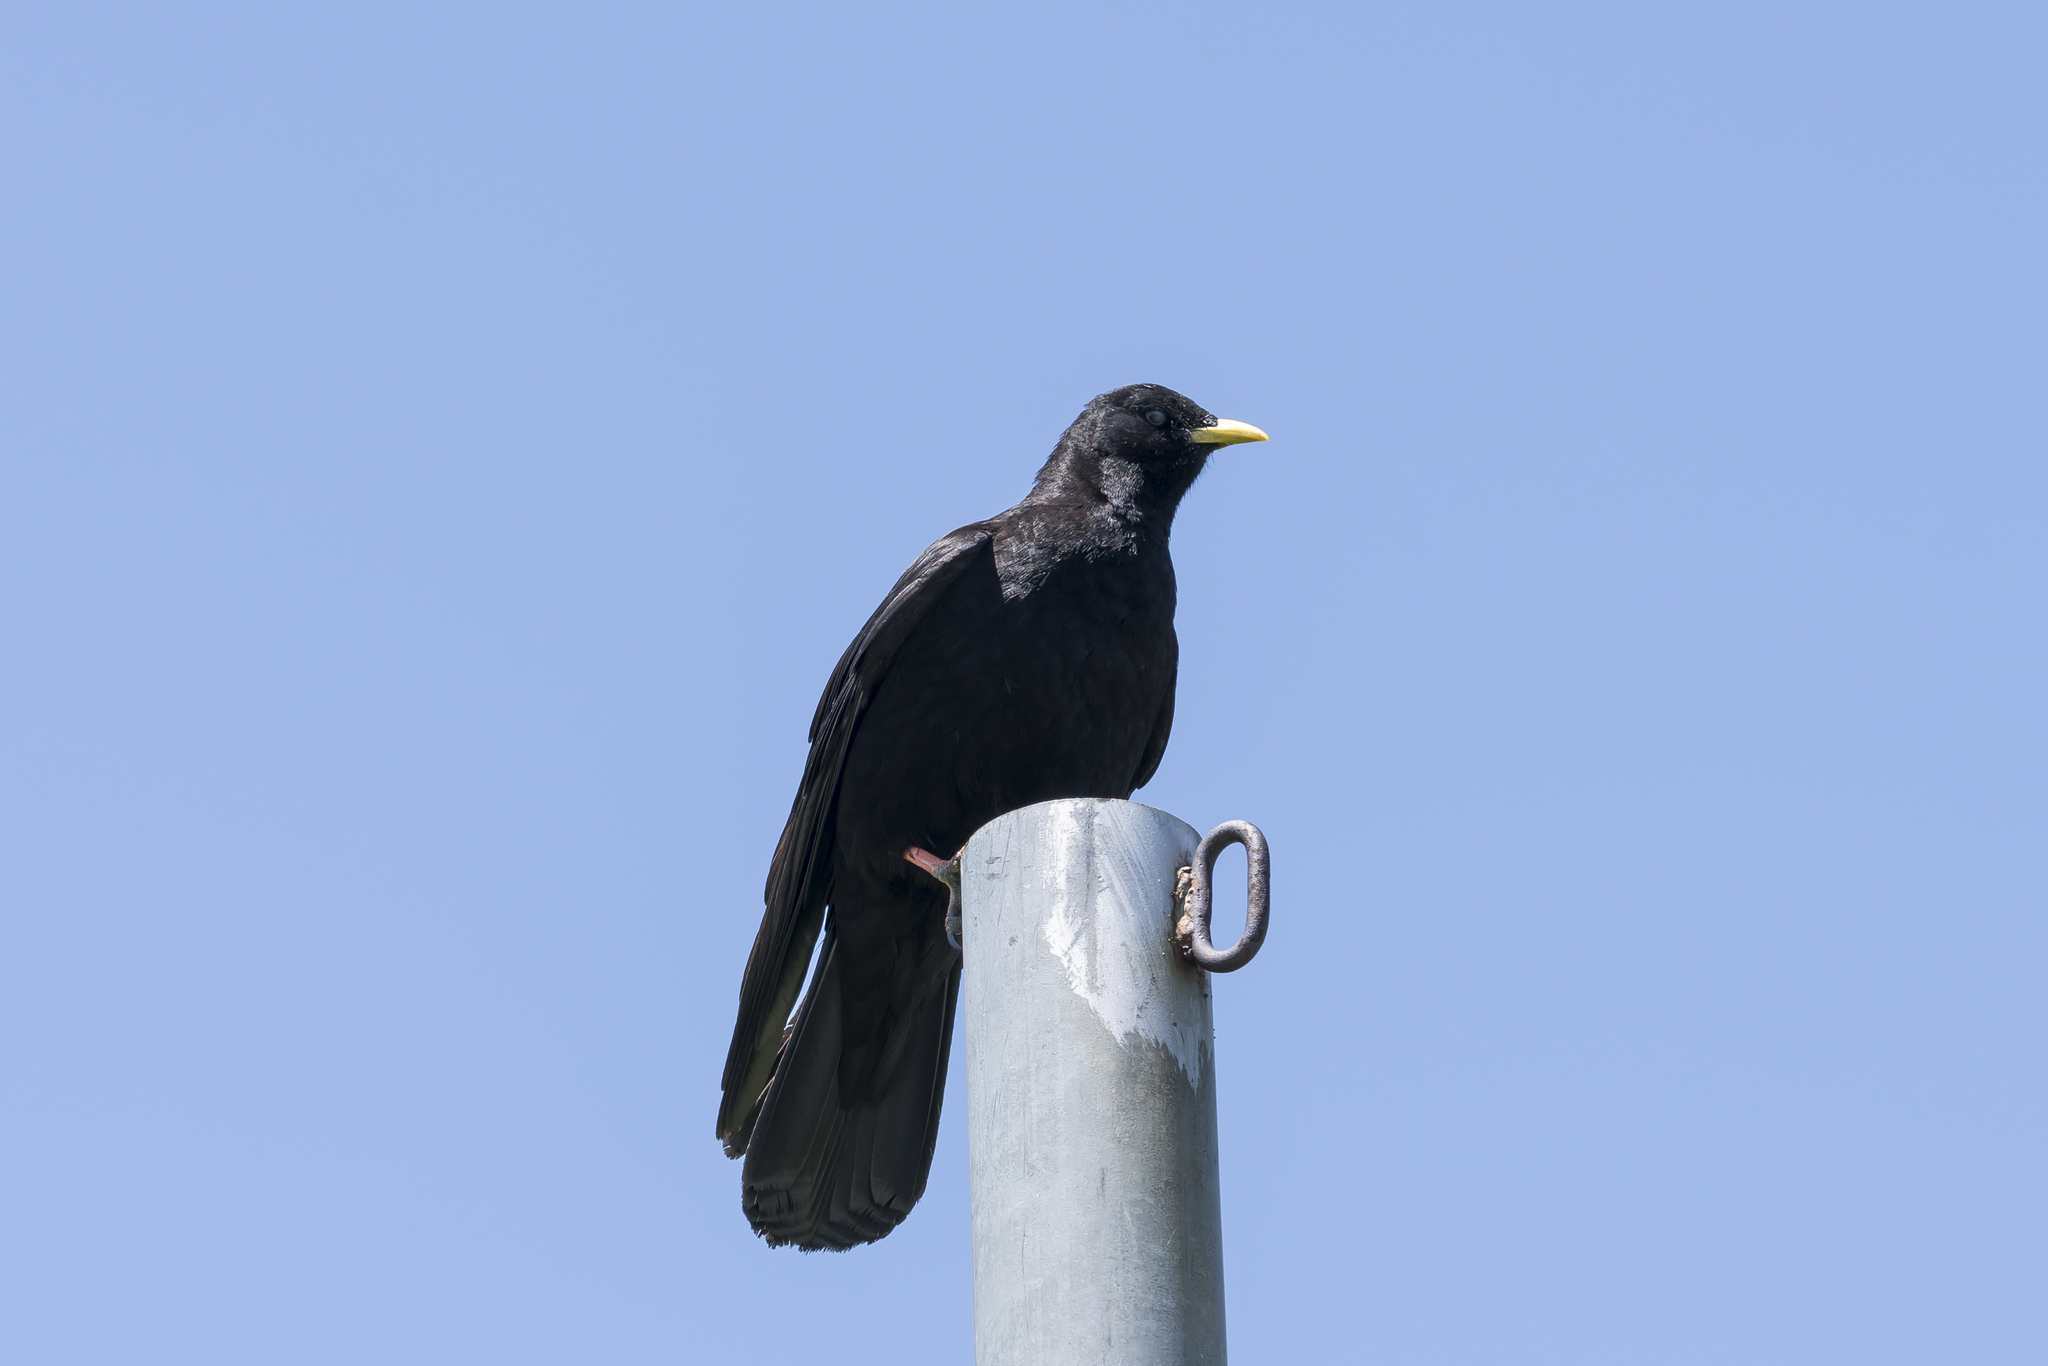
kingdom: Animalia
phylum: Chordata
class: Aves
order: Passeriformes
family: Corvidae
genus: Pyrrhocorax
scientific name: Pyrrhocorax graculus
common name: Alpine chough
